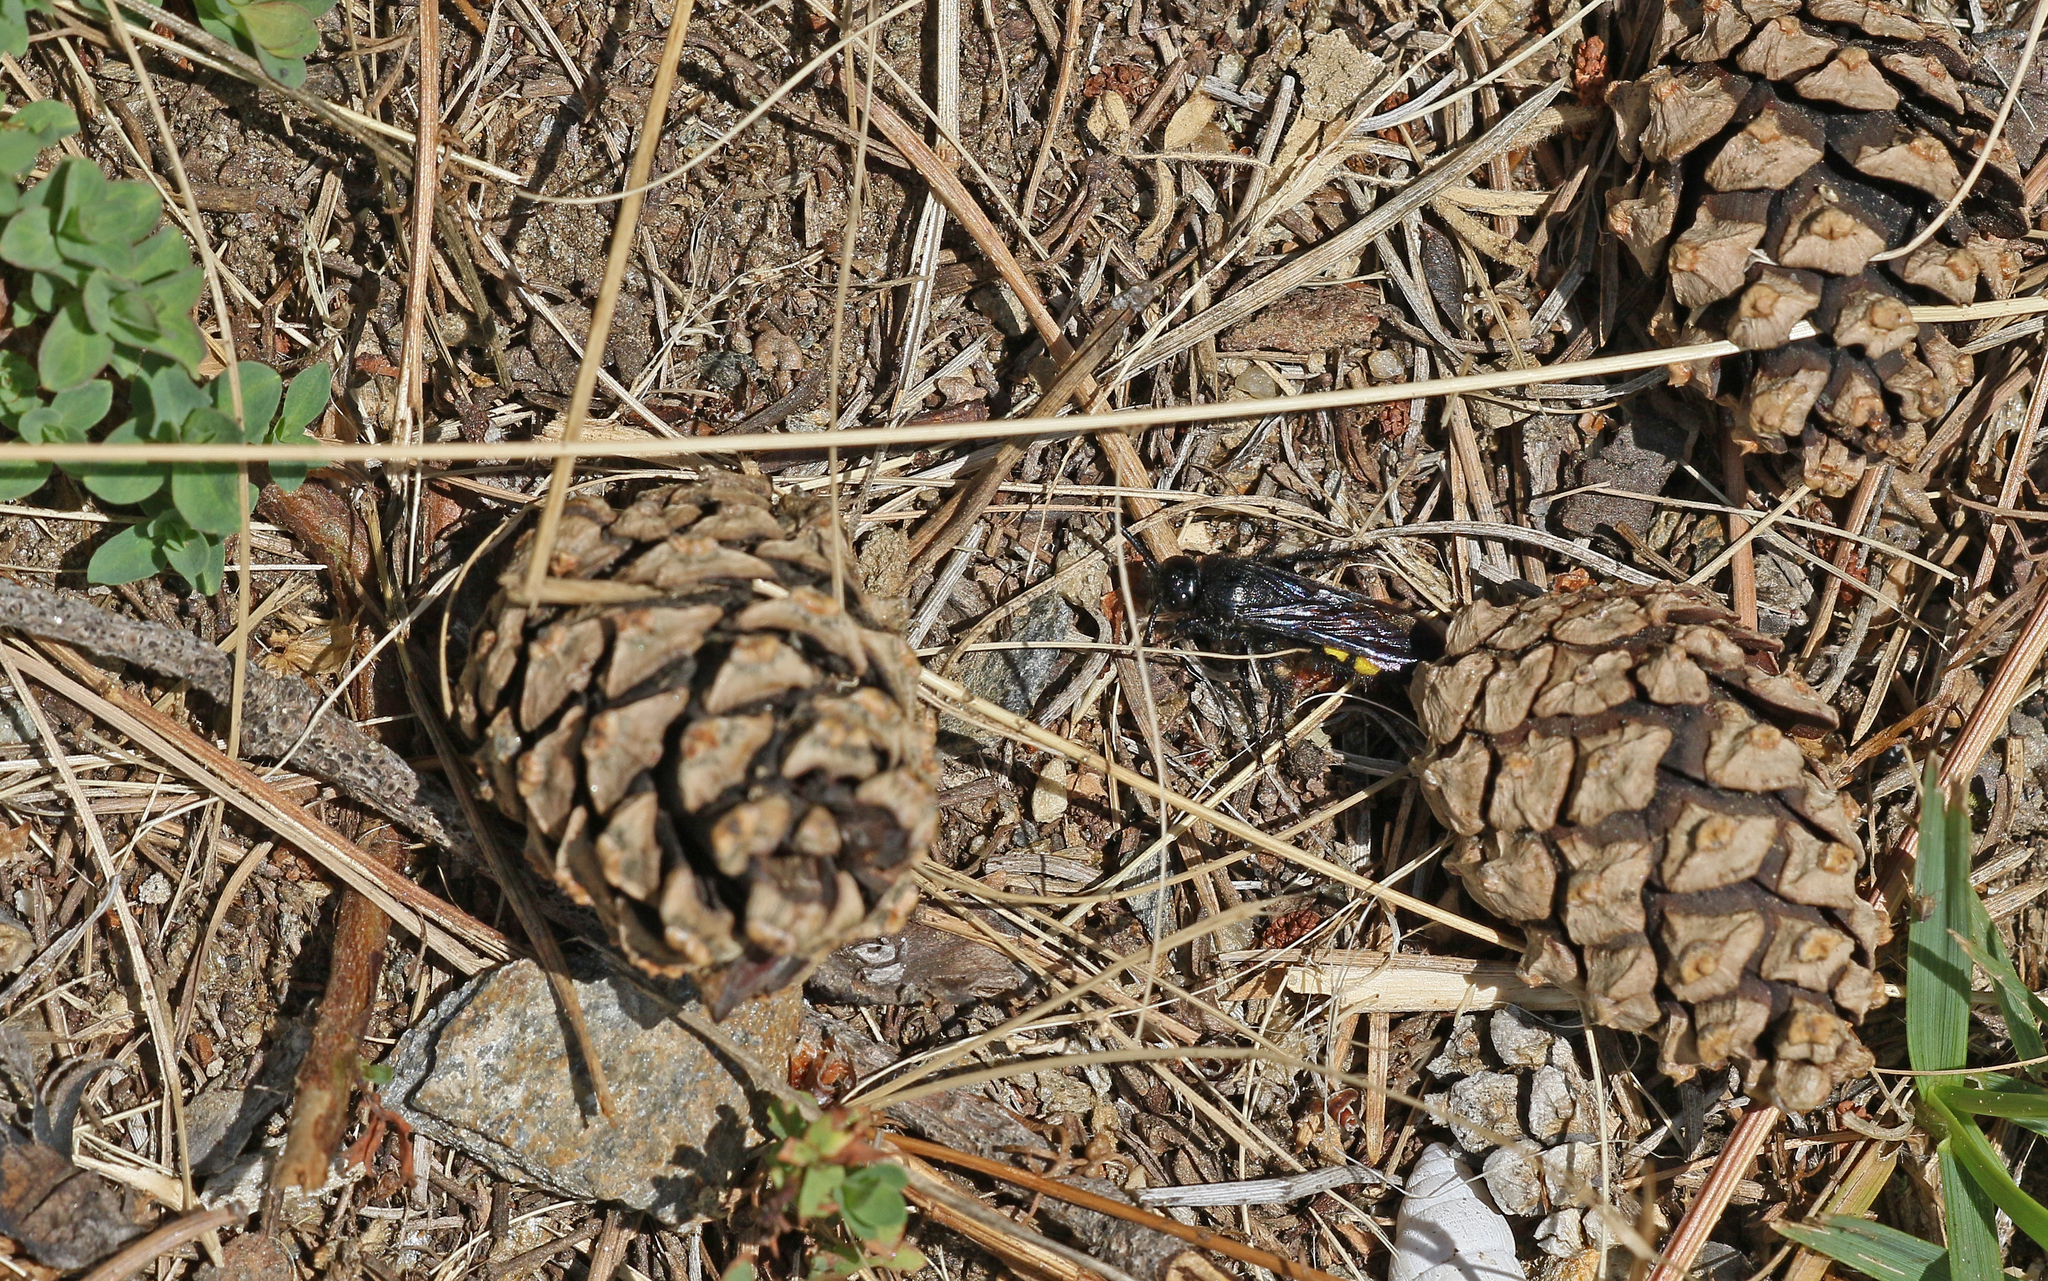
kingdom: Animalia
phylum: Arthropoda
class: Insecta
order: Hymenoptera
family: Scoliidae
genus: Scolia
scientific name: Scolia hirta
